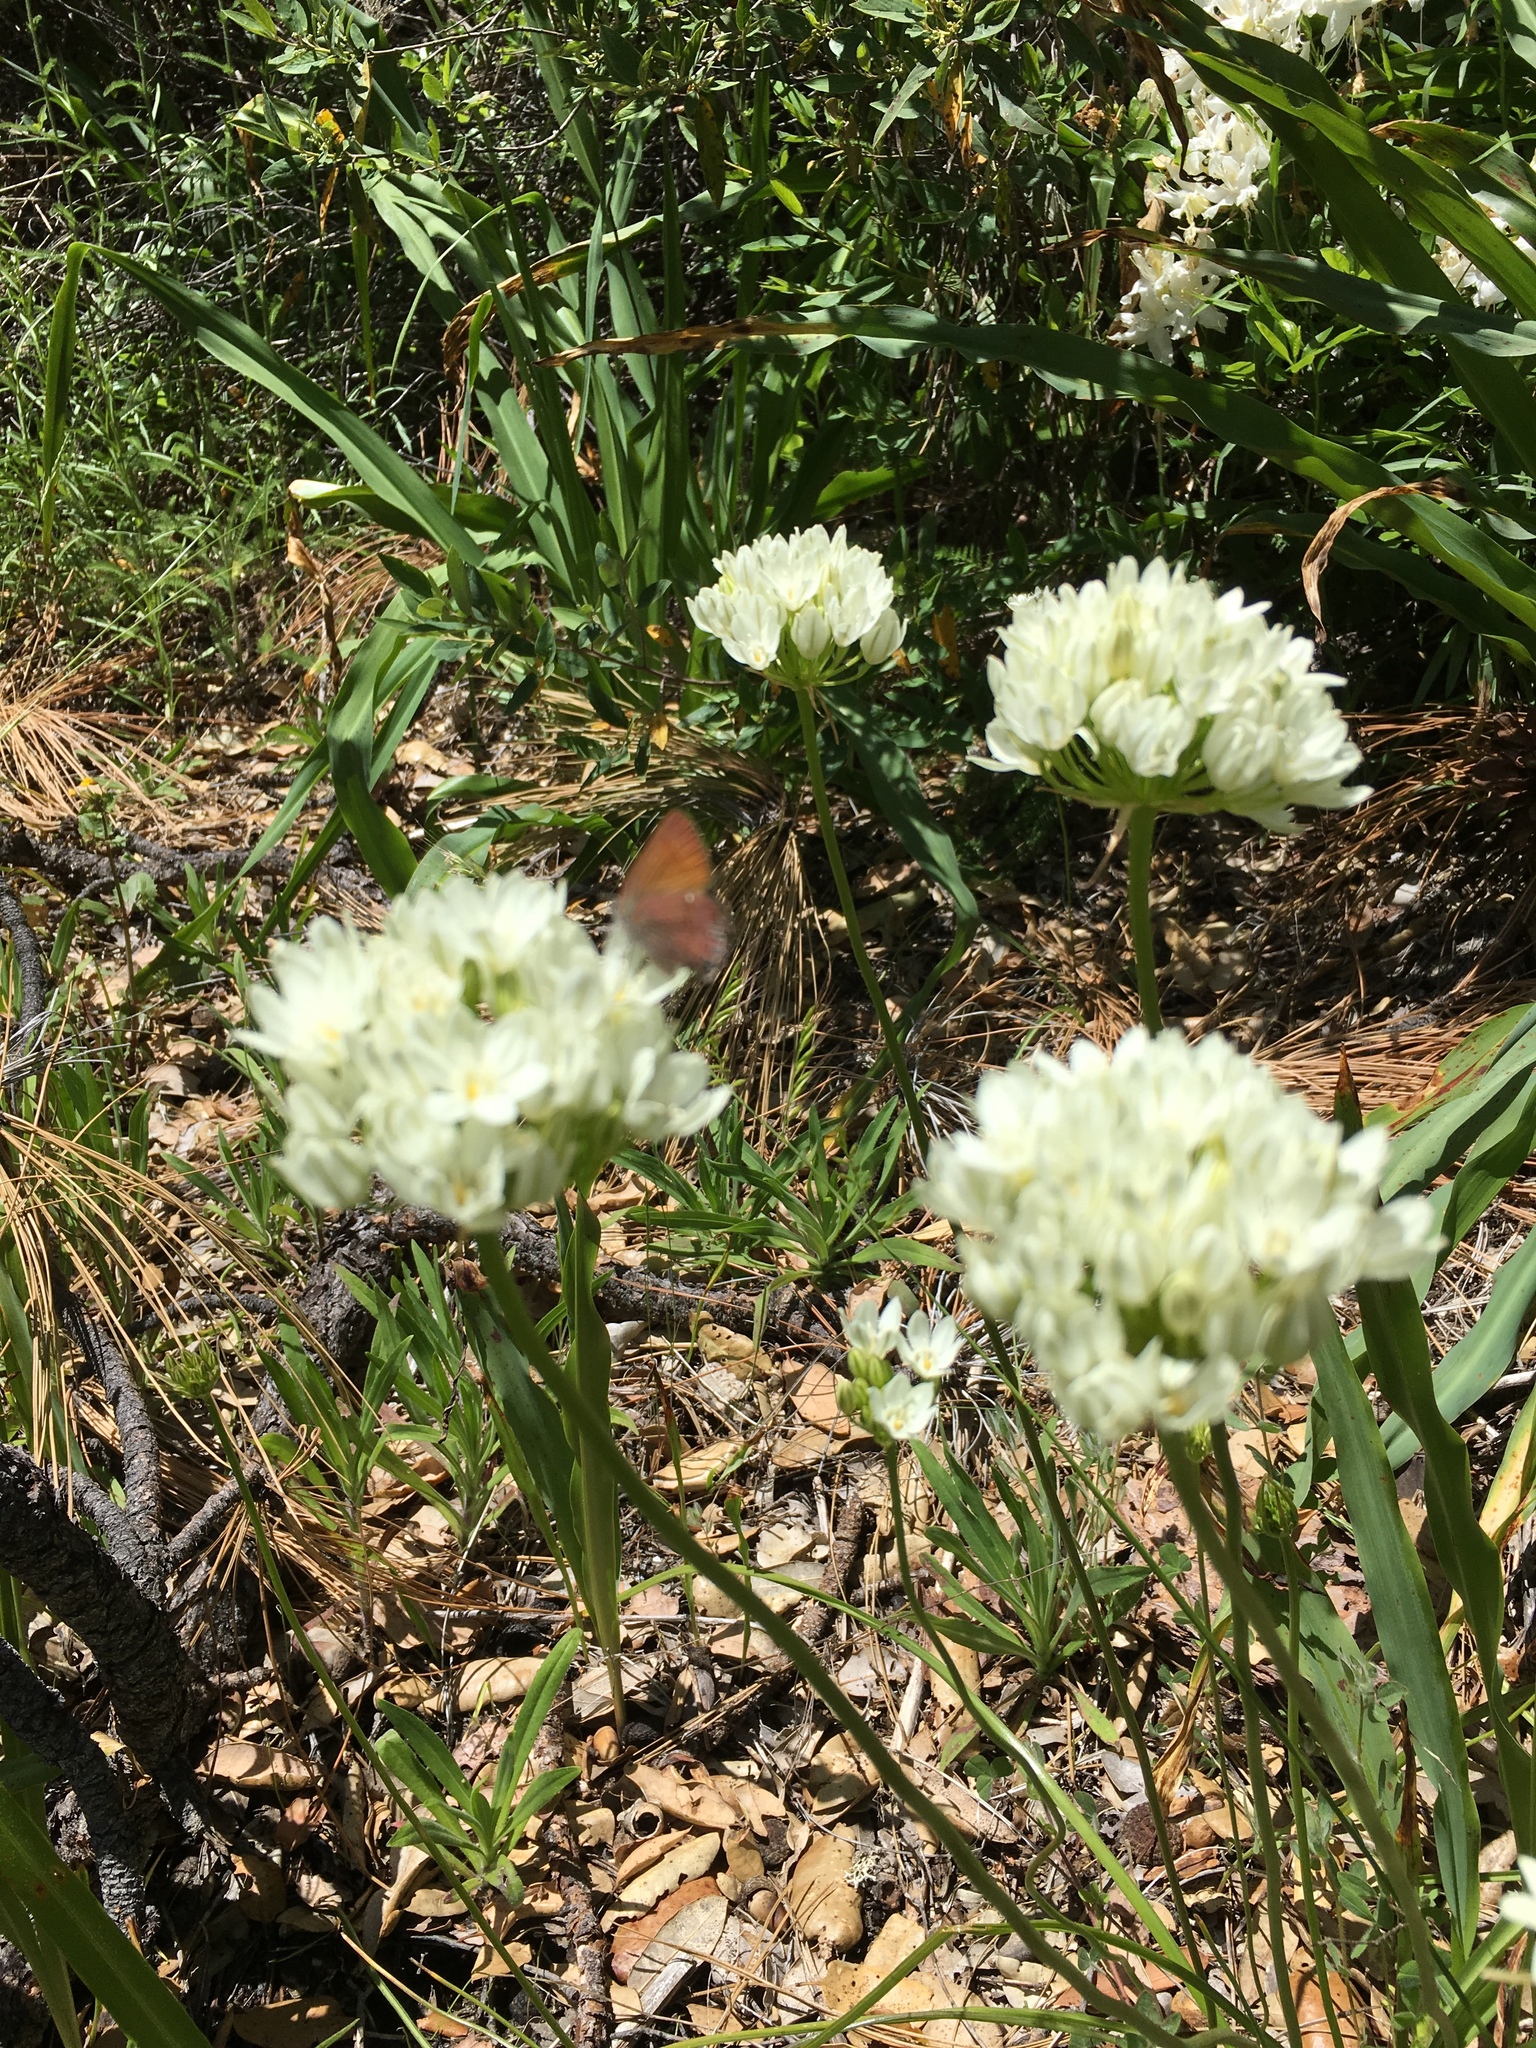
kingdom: Plantae
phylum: Tracheophyta
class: Liliopsida
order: Asparagales
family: Asparagaceae
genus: Triteleia
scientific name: Triteleia hyacinthina
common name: White brodiaea
